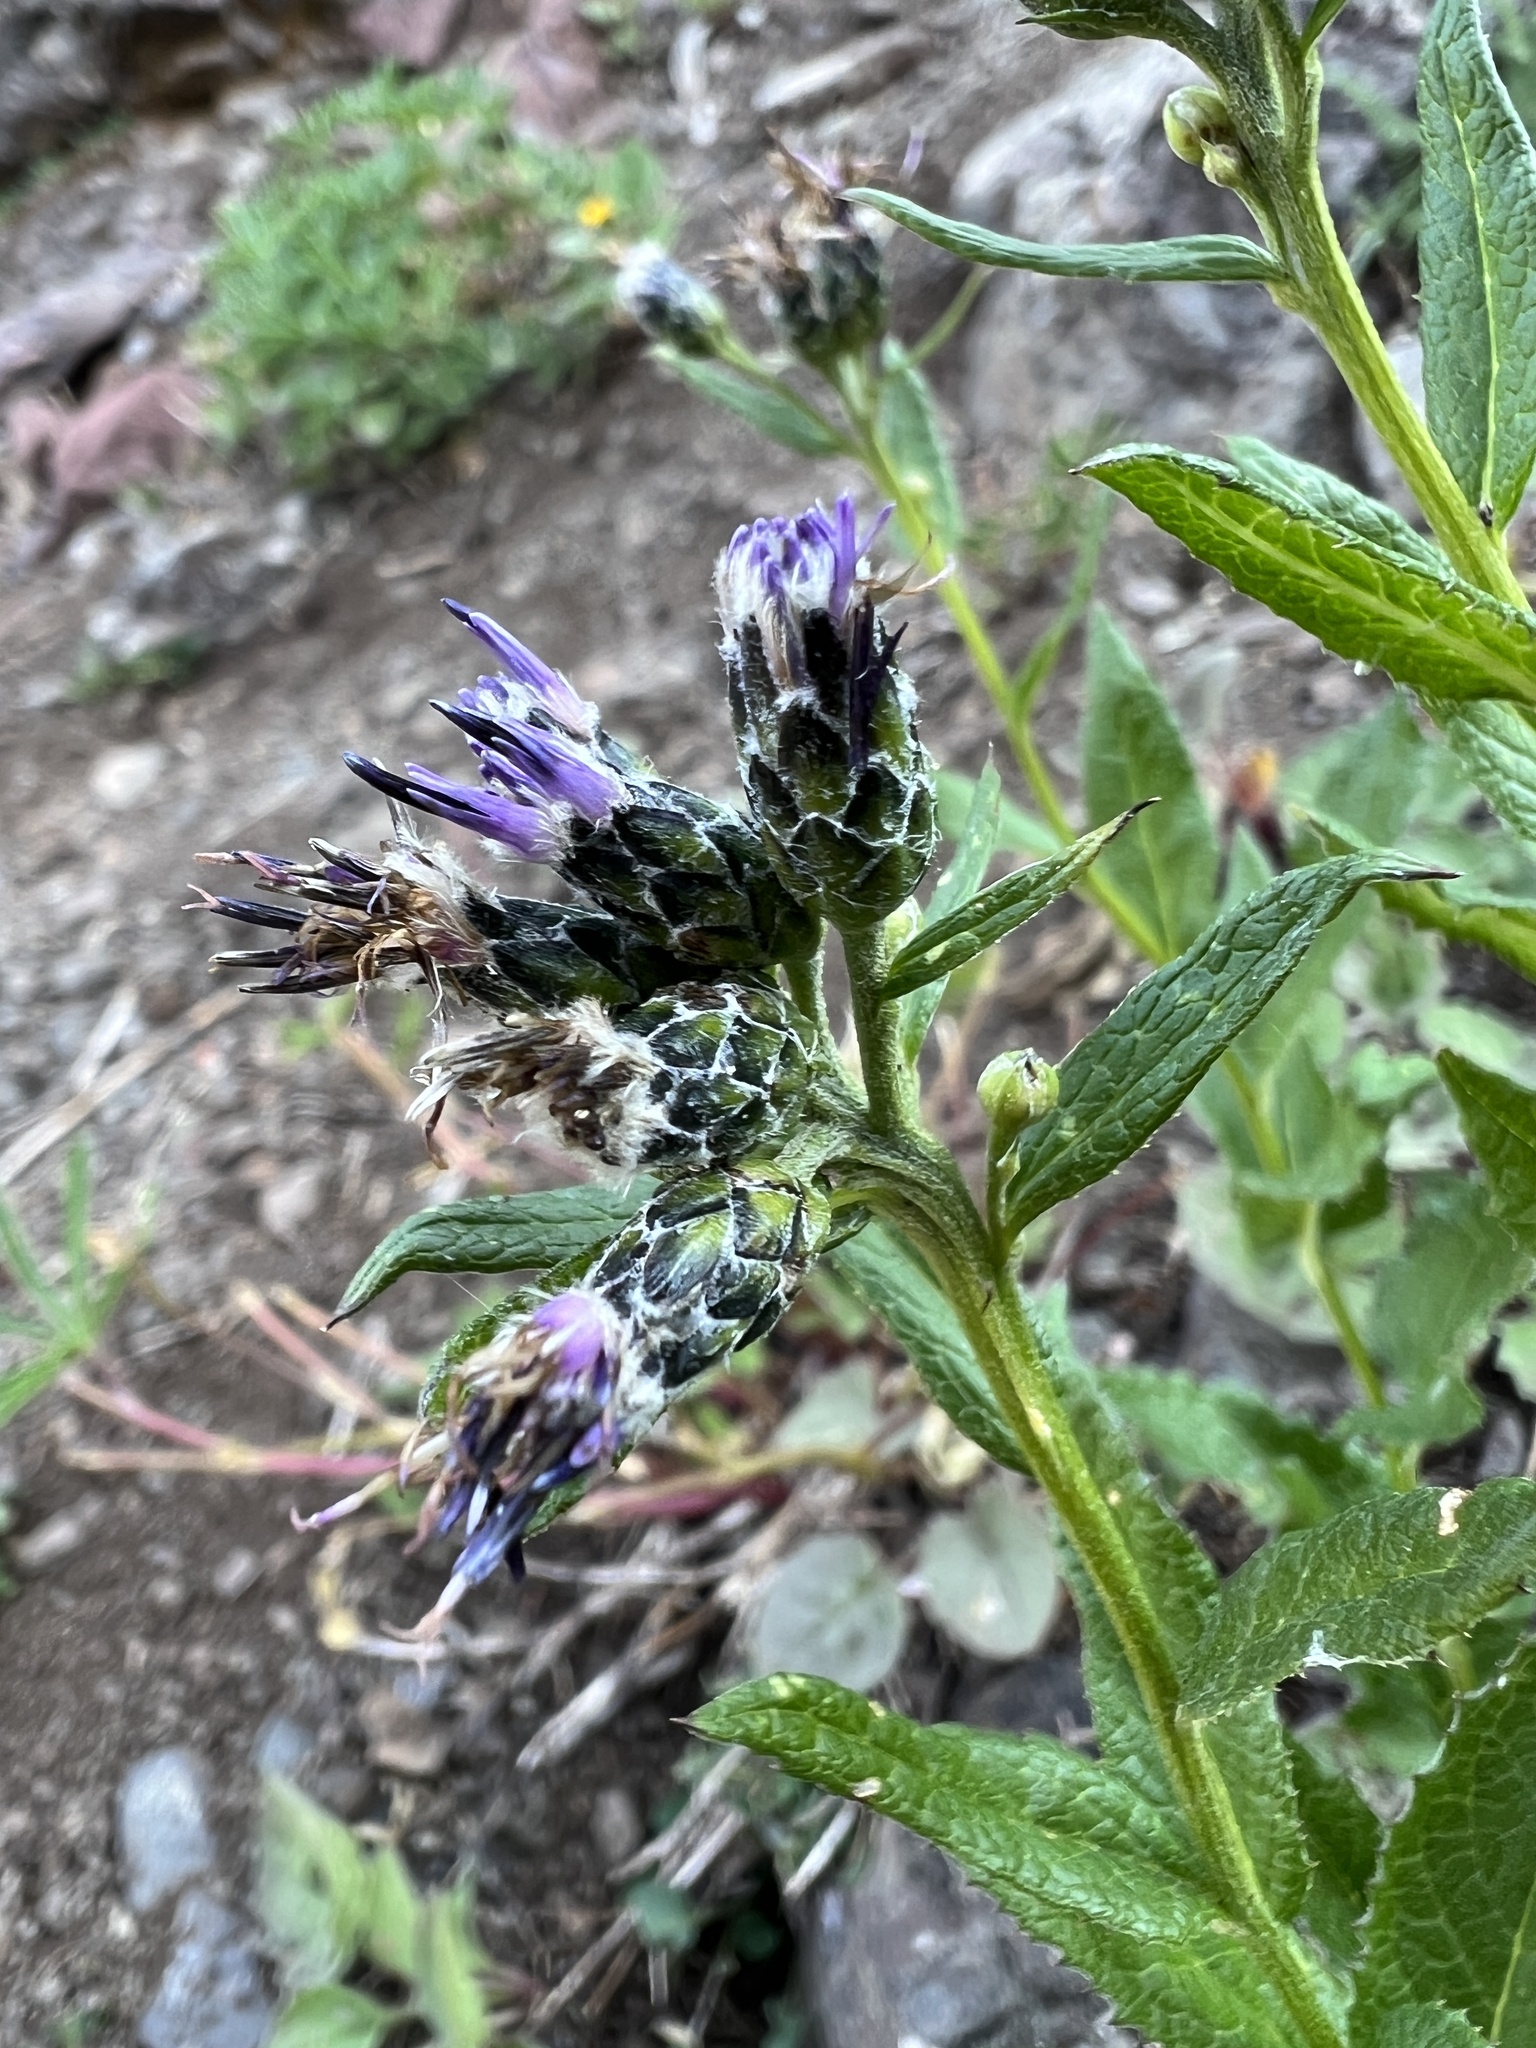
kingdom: Plantae
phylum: Tracheophyta
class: Magnoliopsida
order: Asterales
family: Asteraceae
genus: Saussurea
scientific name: Saussurea americana
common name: American saw-wort
